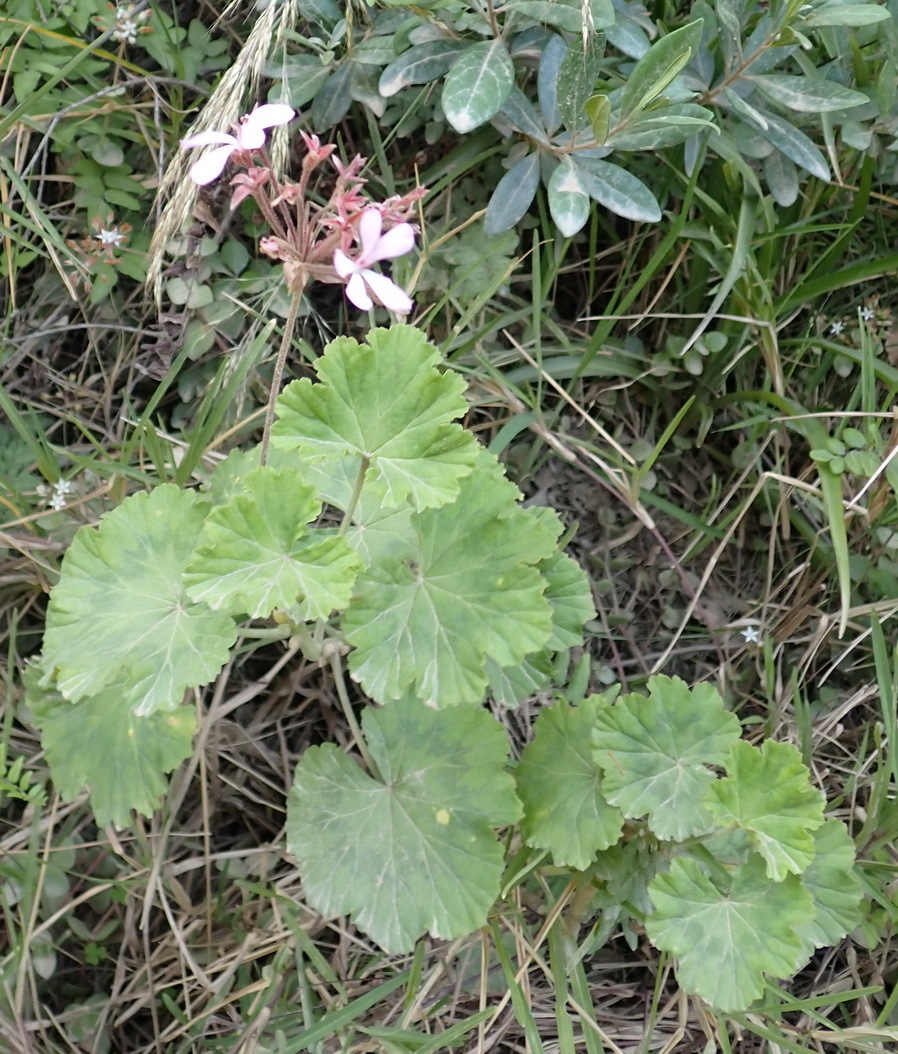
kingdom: Plantae
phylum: Tracheophyta
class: Magnoliopsida
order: Geraniales
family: Geraniaceae
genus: Pelargonium
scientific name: Pelargonium zonale
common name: Horseshoe geranium
